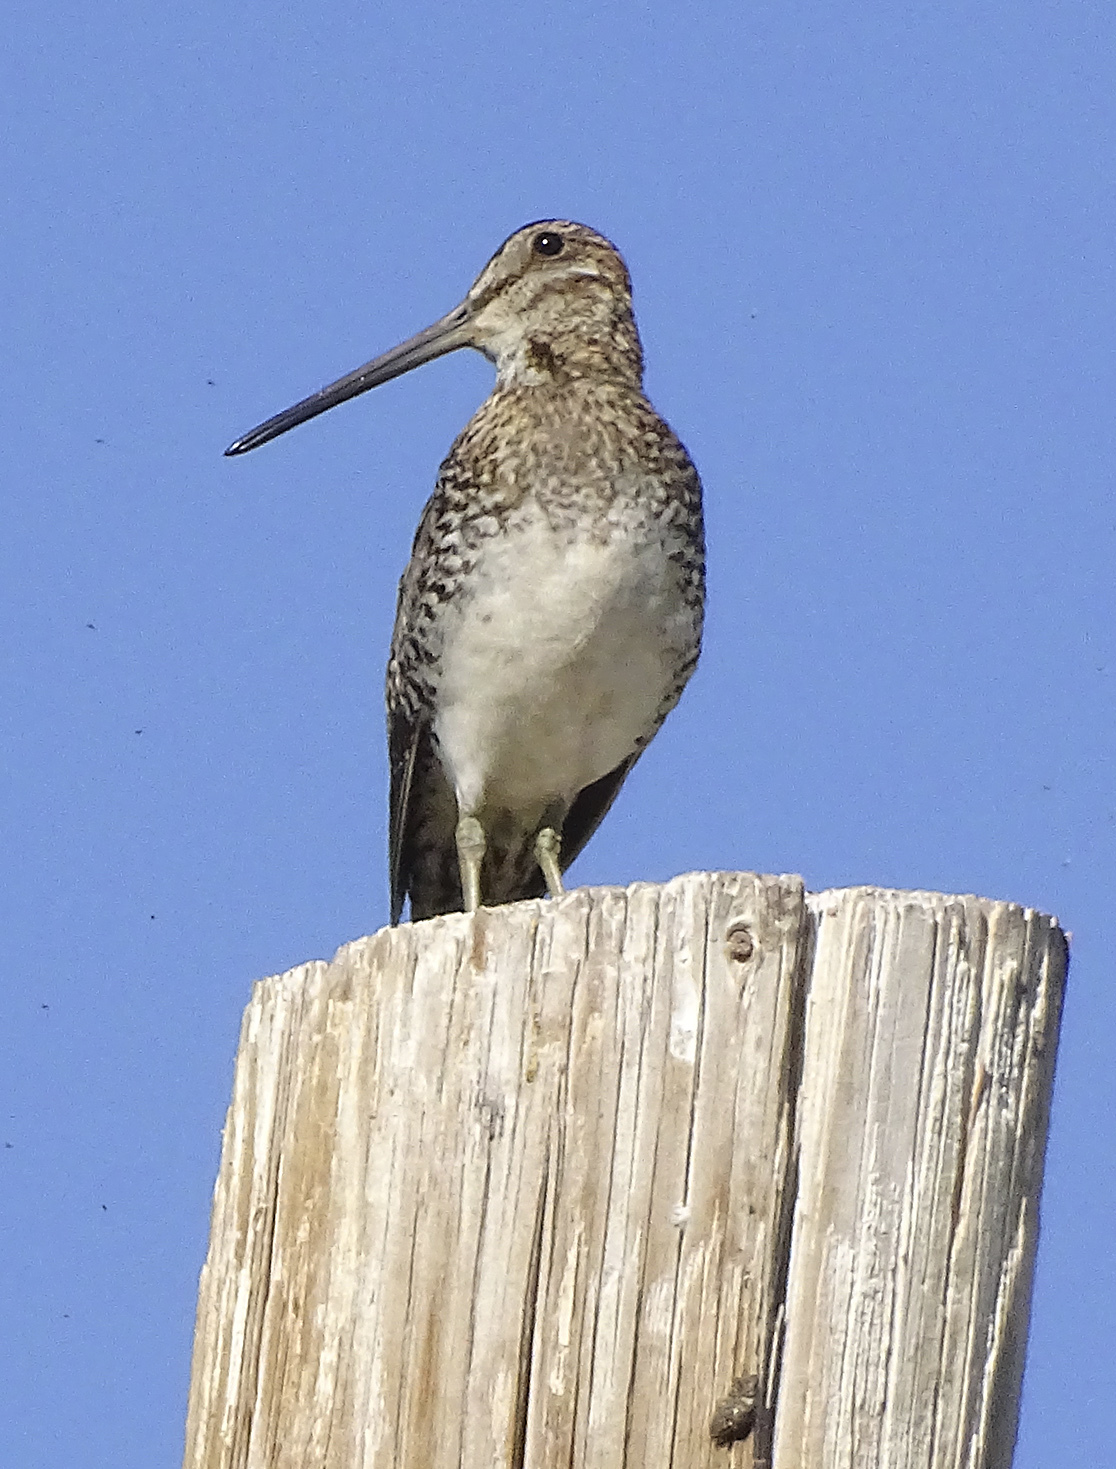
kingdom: Animalia
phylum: Chordata
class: Aves
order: Charadriiformes
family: Scolopacidae
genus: Gallinago
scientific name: Gallinago delicata
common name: Wilson's snipe
